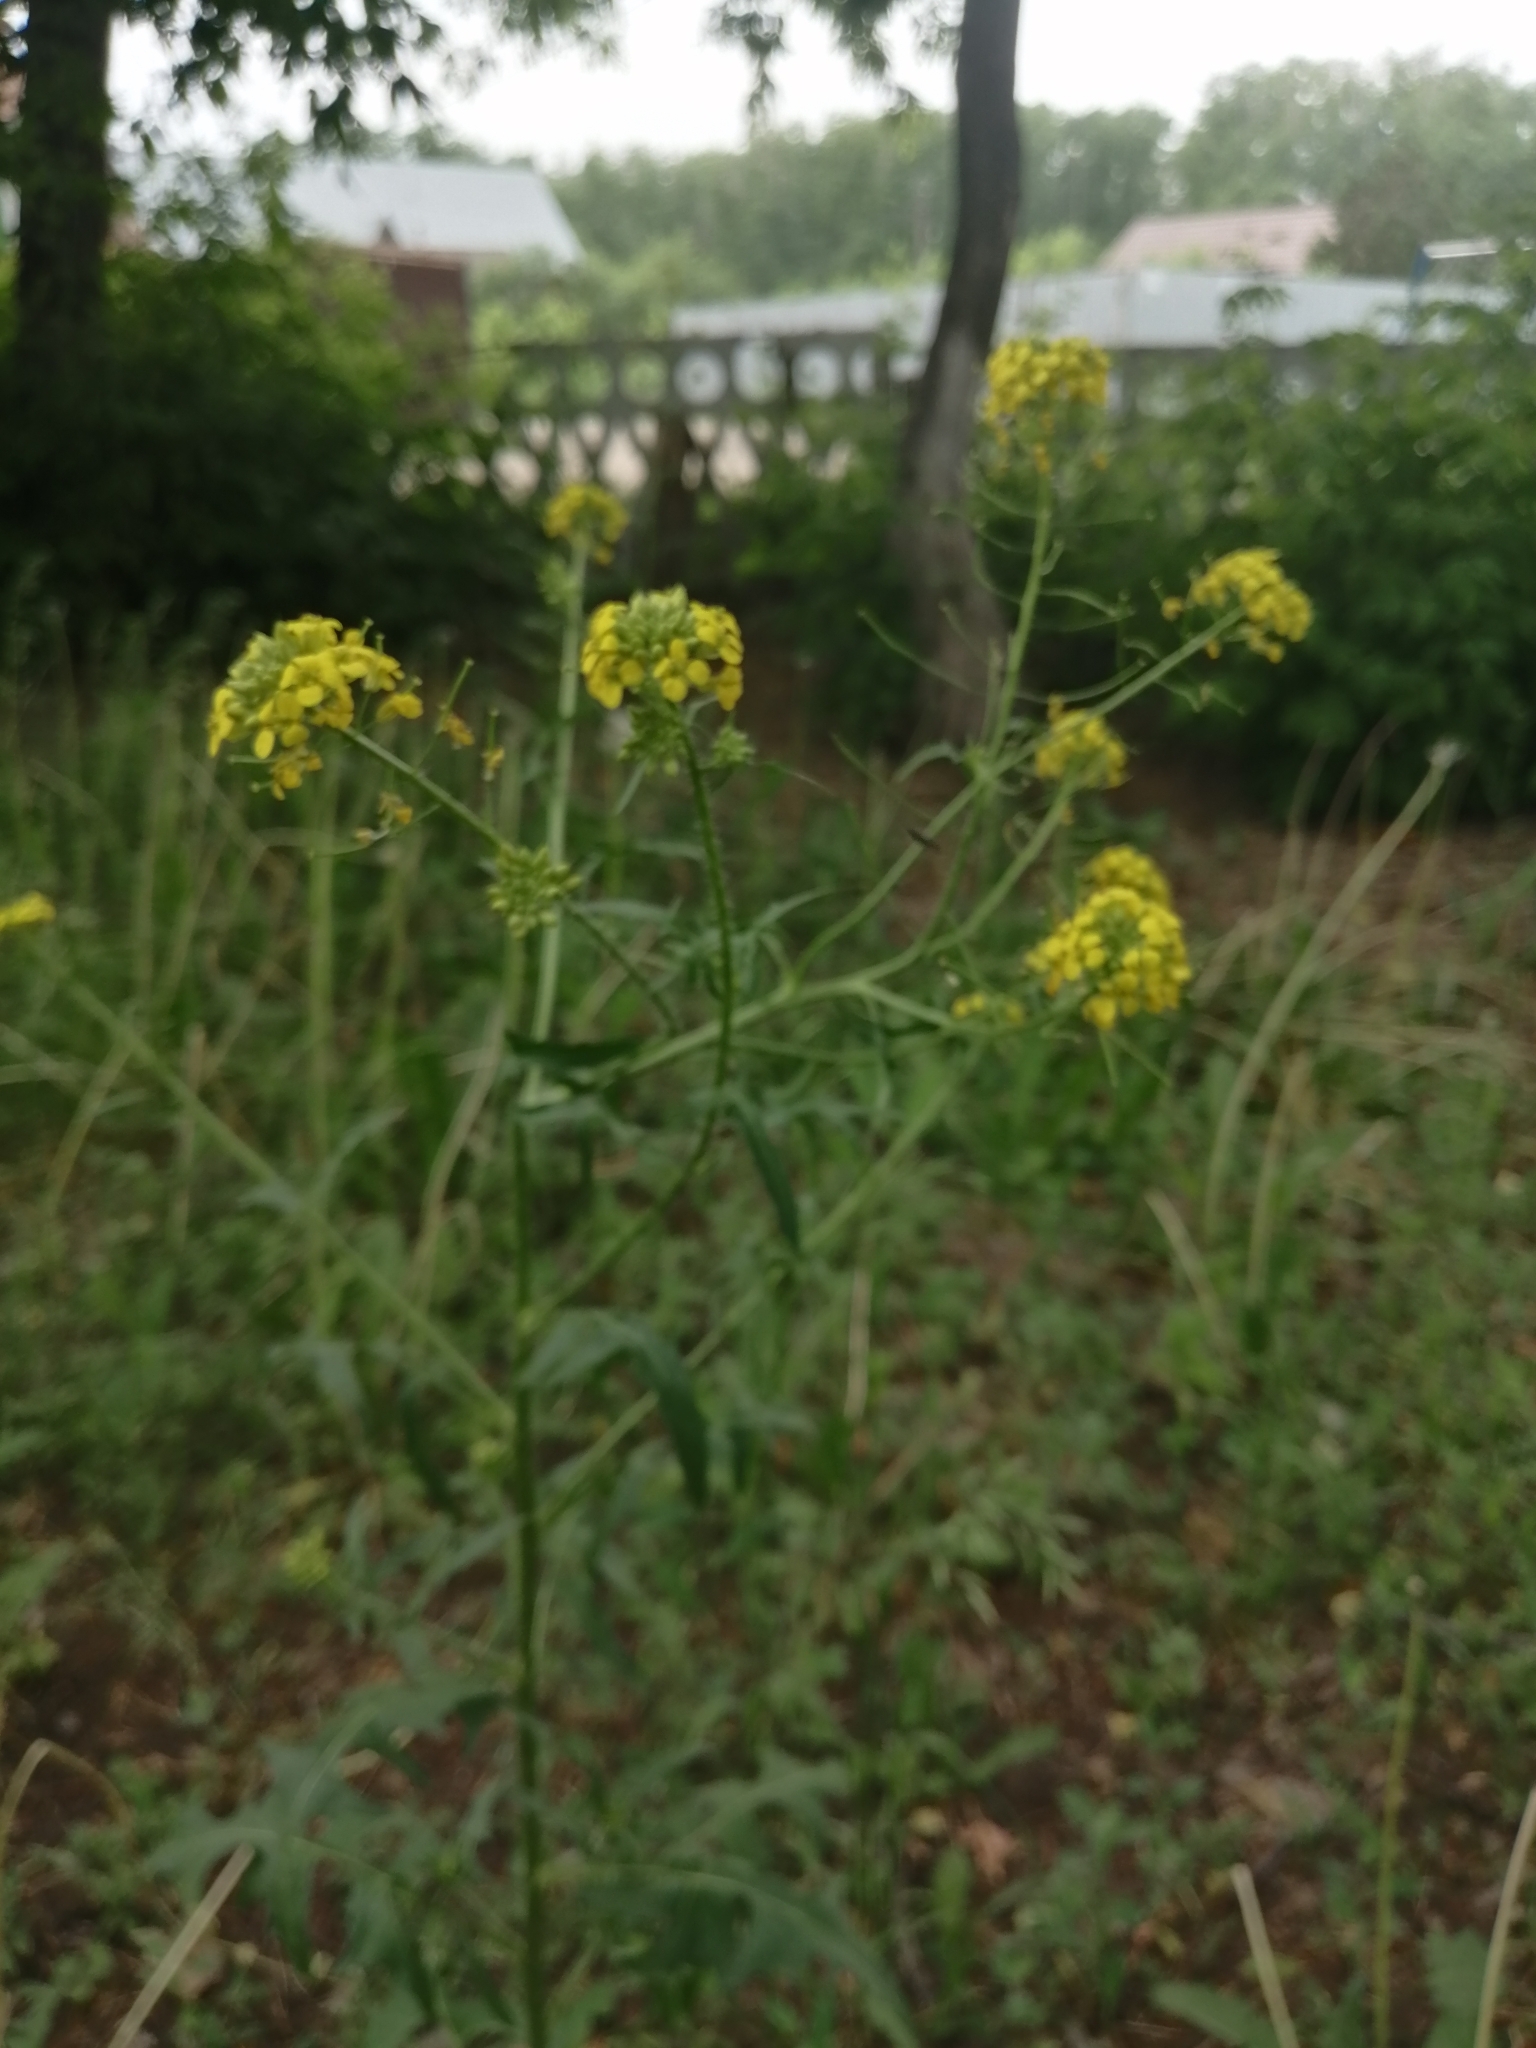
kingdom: Plantae
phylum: Tracheophyta
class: Magnoliopsida
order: Brassicales
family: Brassicaceae
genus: Sisymbrium
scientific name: Sisymbrium loeselii
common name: False london-rocket
